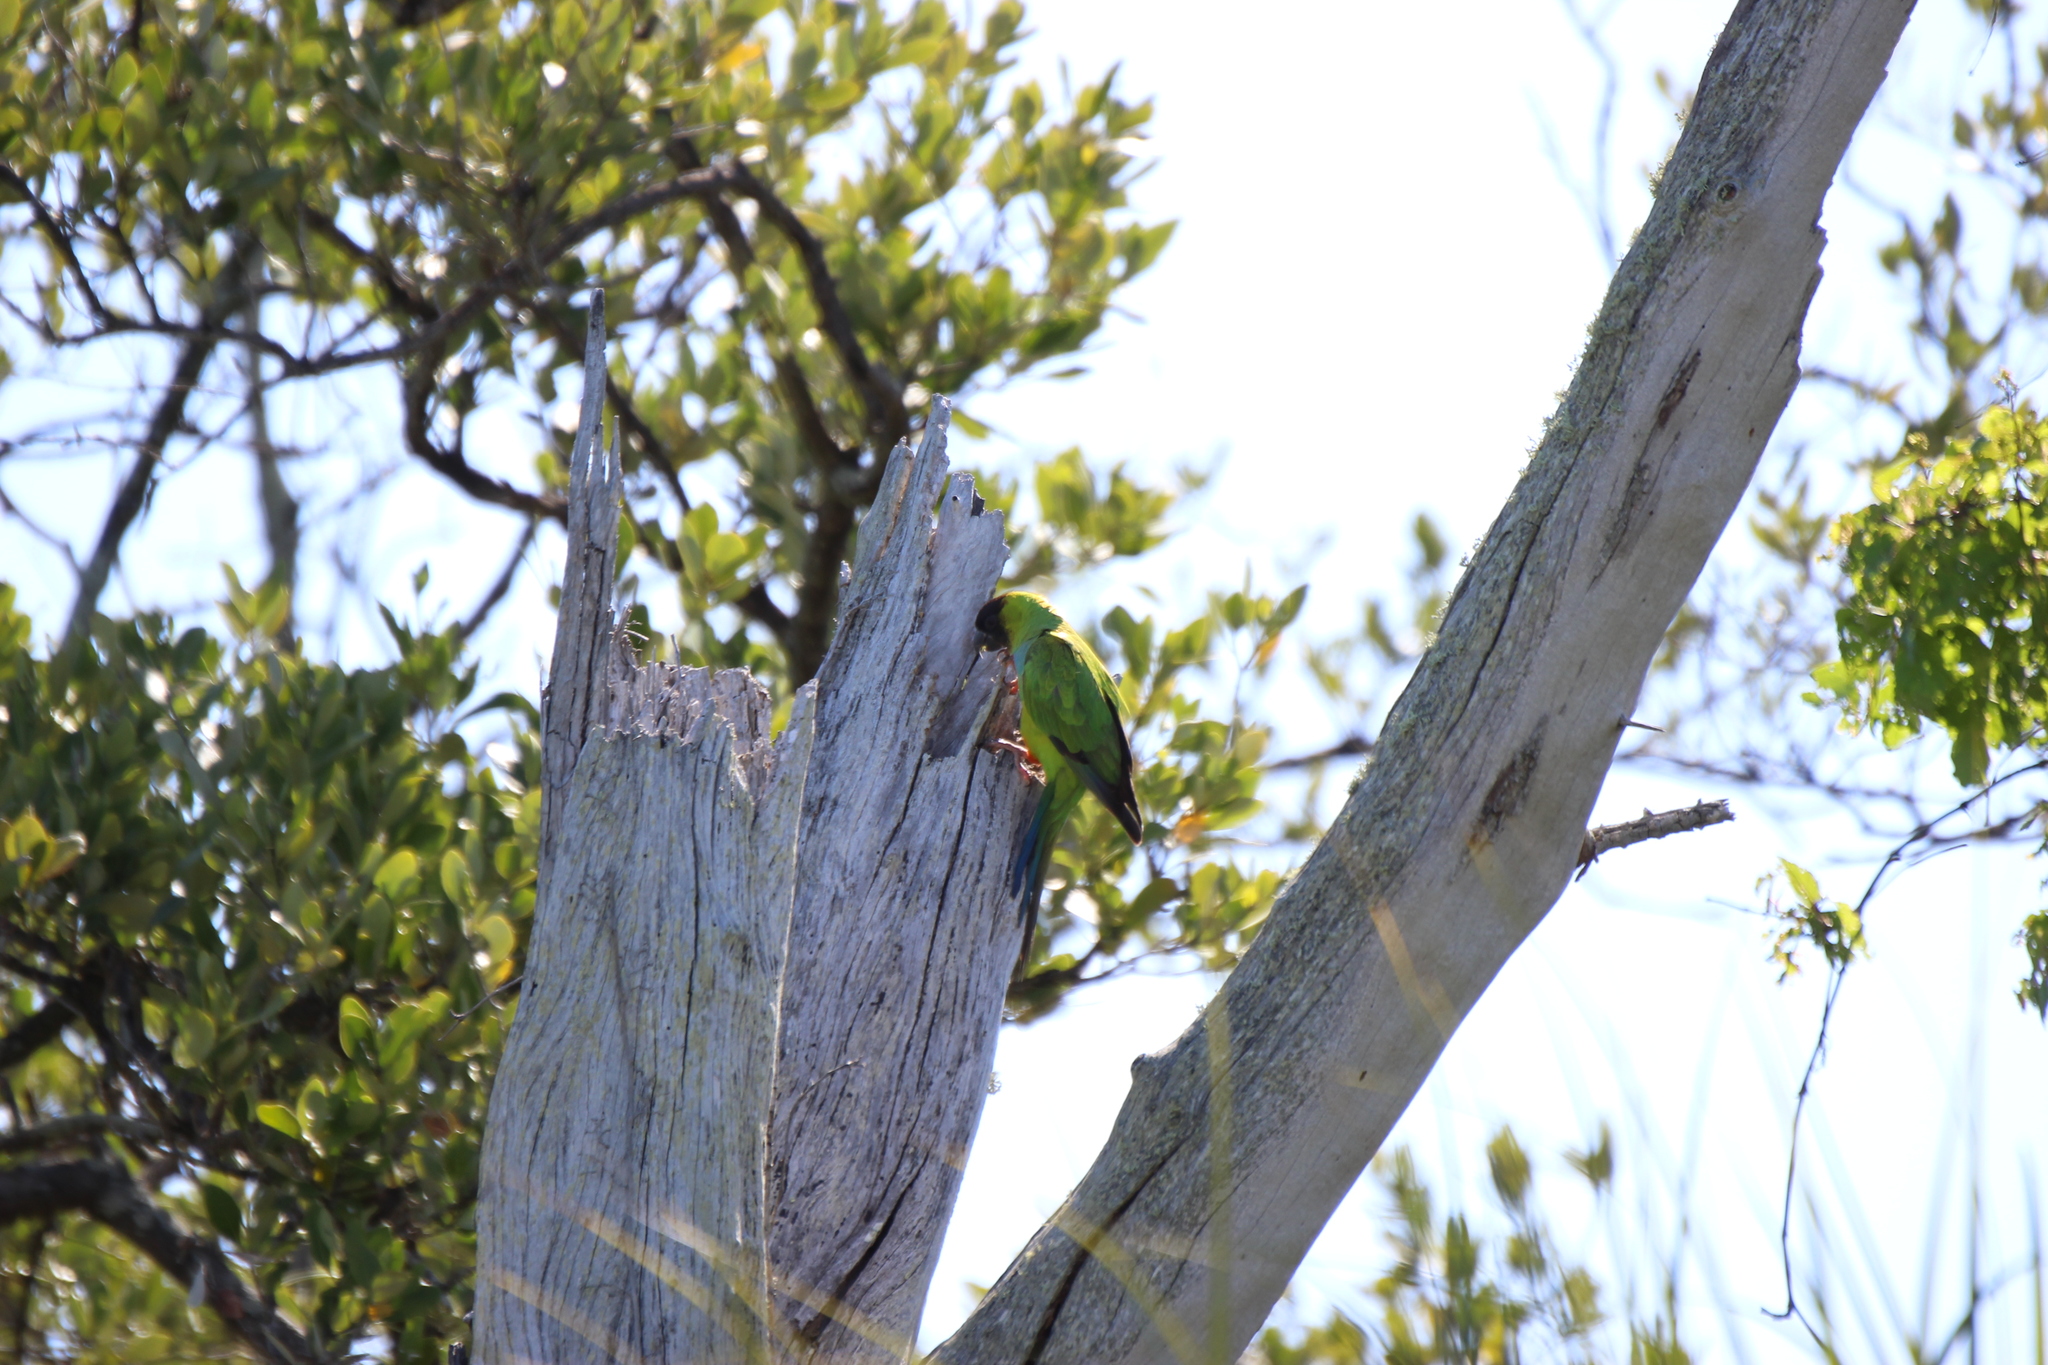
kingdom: Animalia
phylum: Chordata
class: Aves
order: Psittaciformes
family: Psittacidae
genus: Nandayus
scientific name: Nandayus nenday
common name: Nanday parakeet
